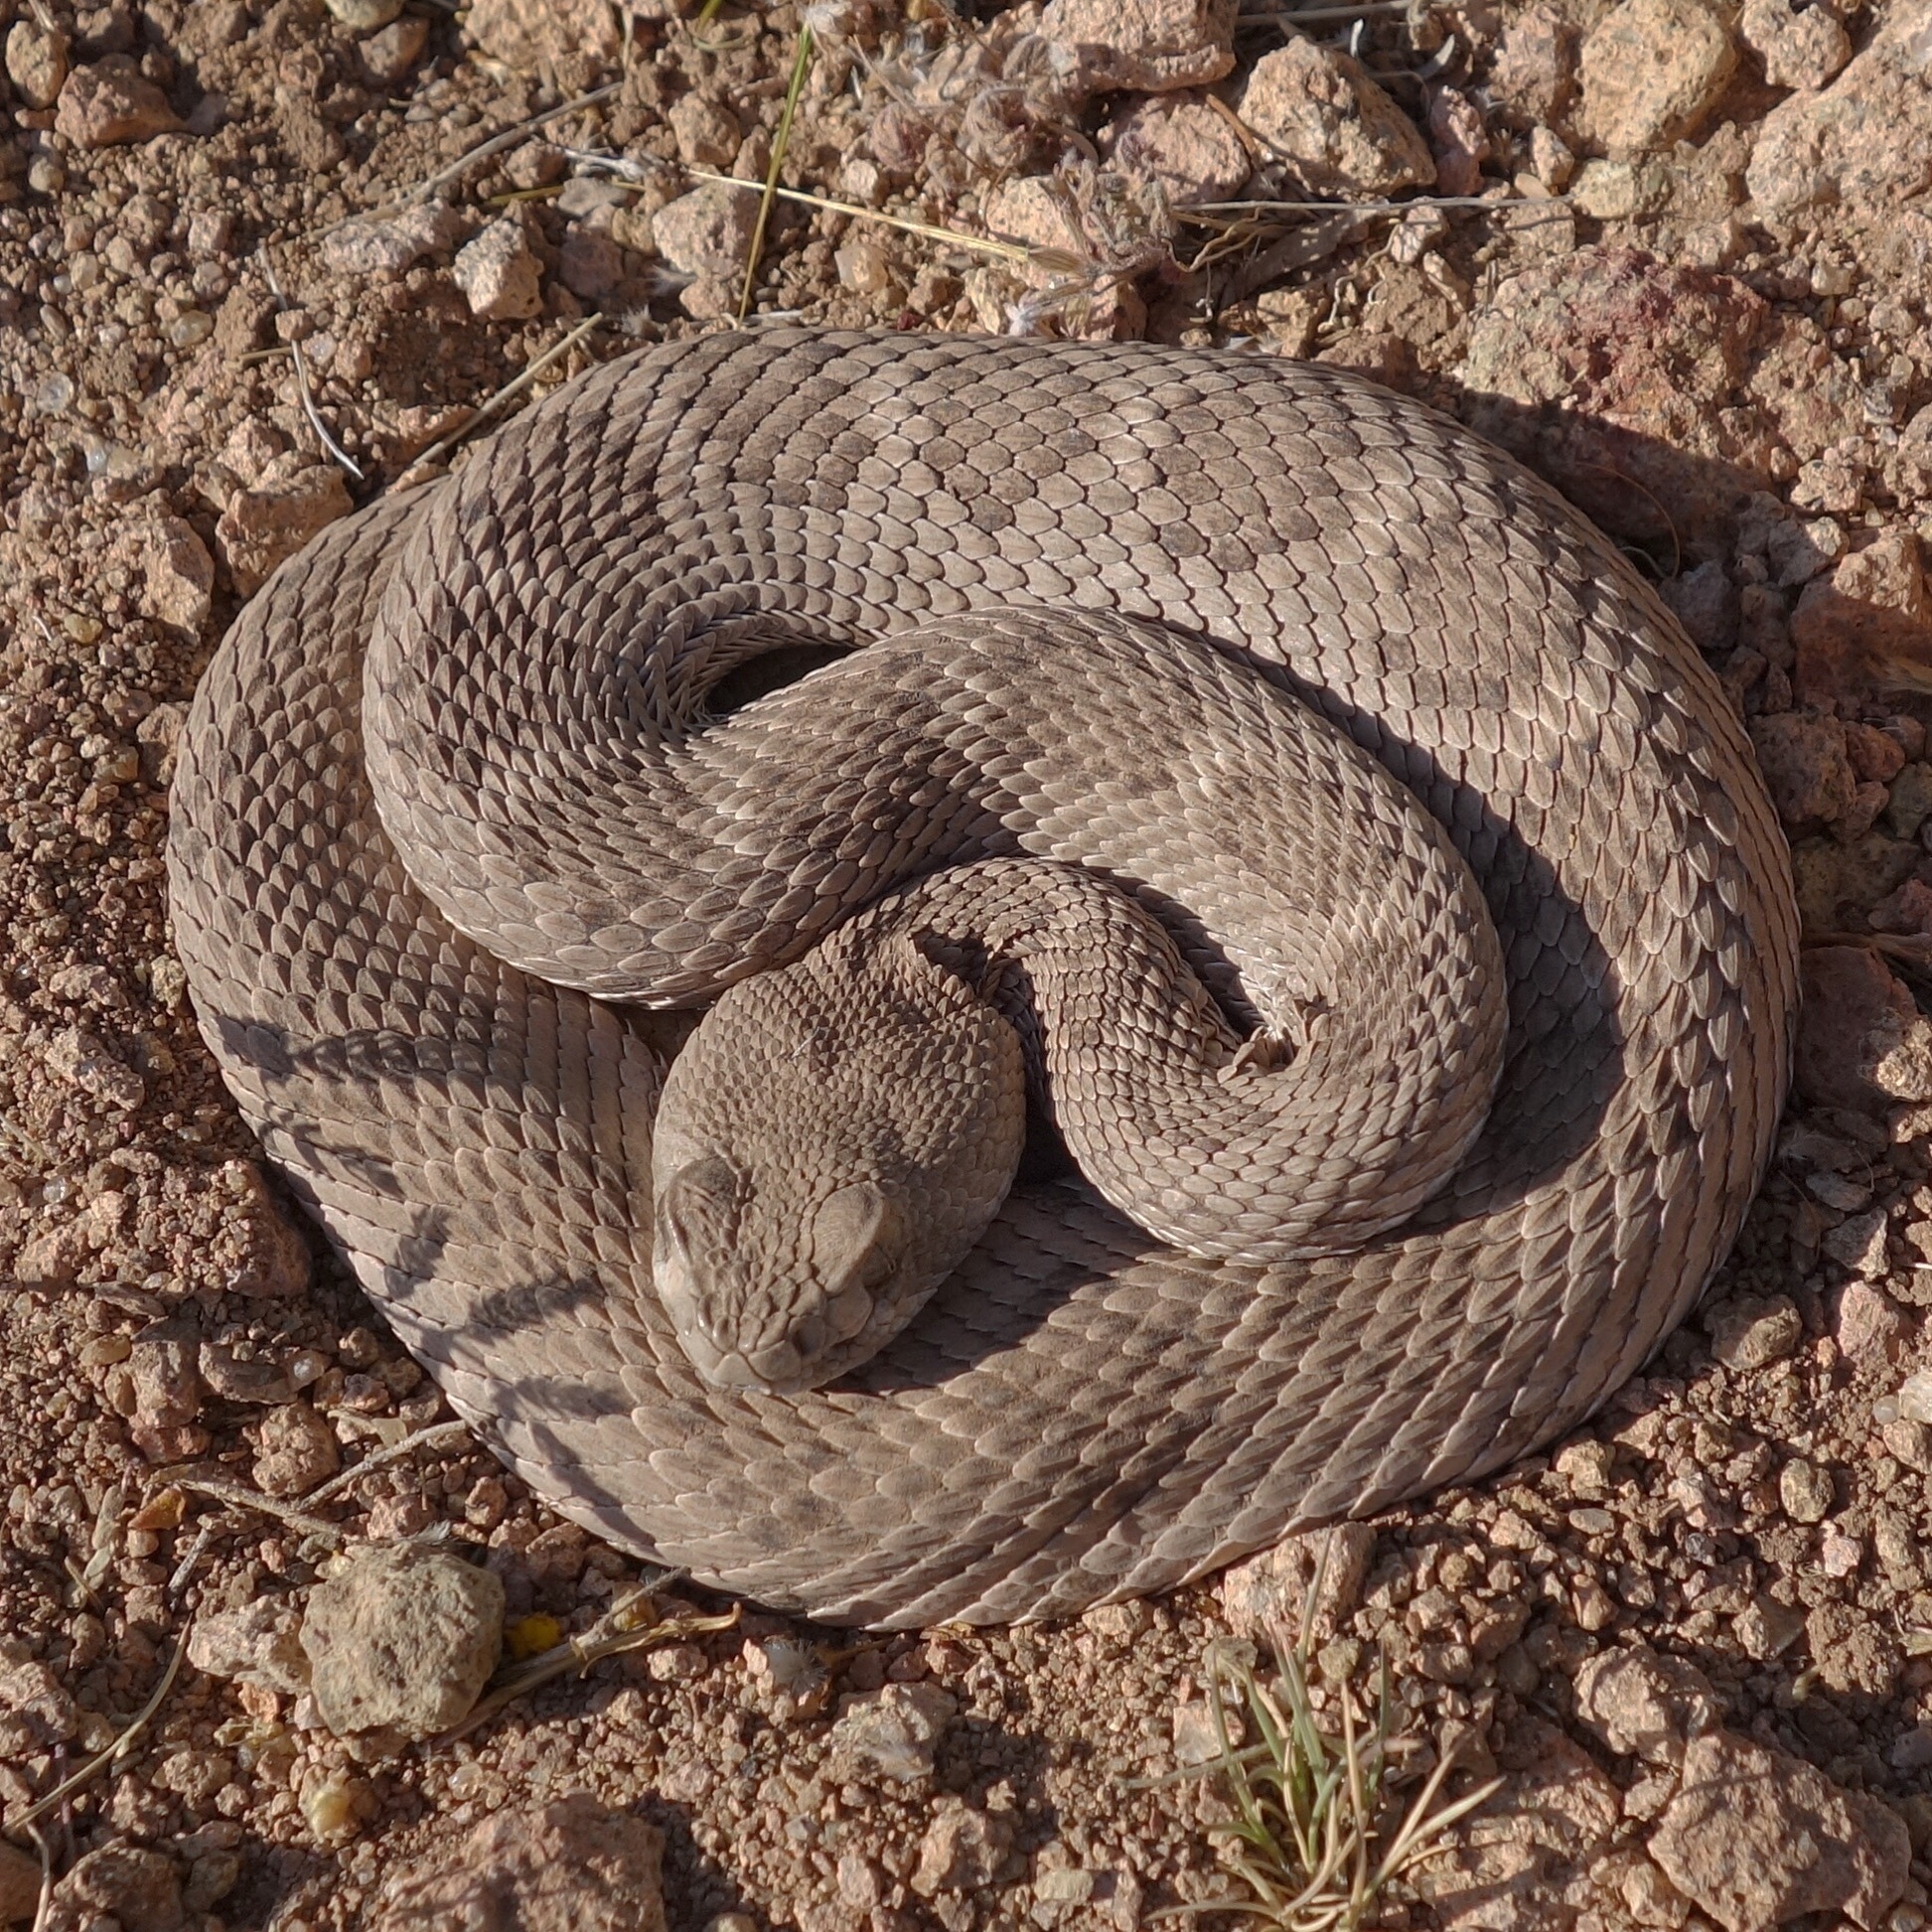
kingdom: Animalia
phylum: Chordata
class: Squamata
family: Viperidae
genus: Crotalus
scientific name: Crotalus atrox
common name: Western diamond-backed rattlesnake
